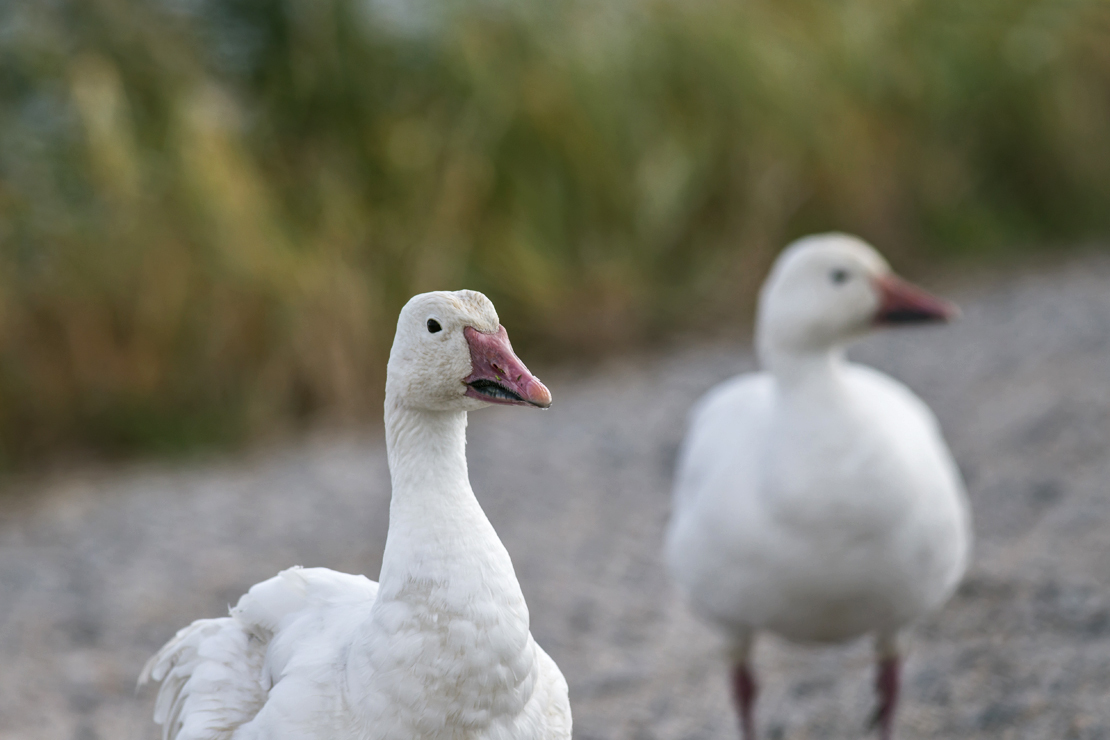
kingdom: Animalia
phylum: Chordata
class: Aves
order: Anseriformes
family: Anatidae
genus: Anser
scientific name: Anser caerulescens
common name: Snow goose
